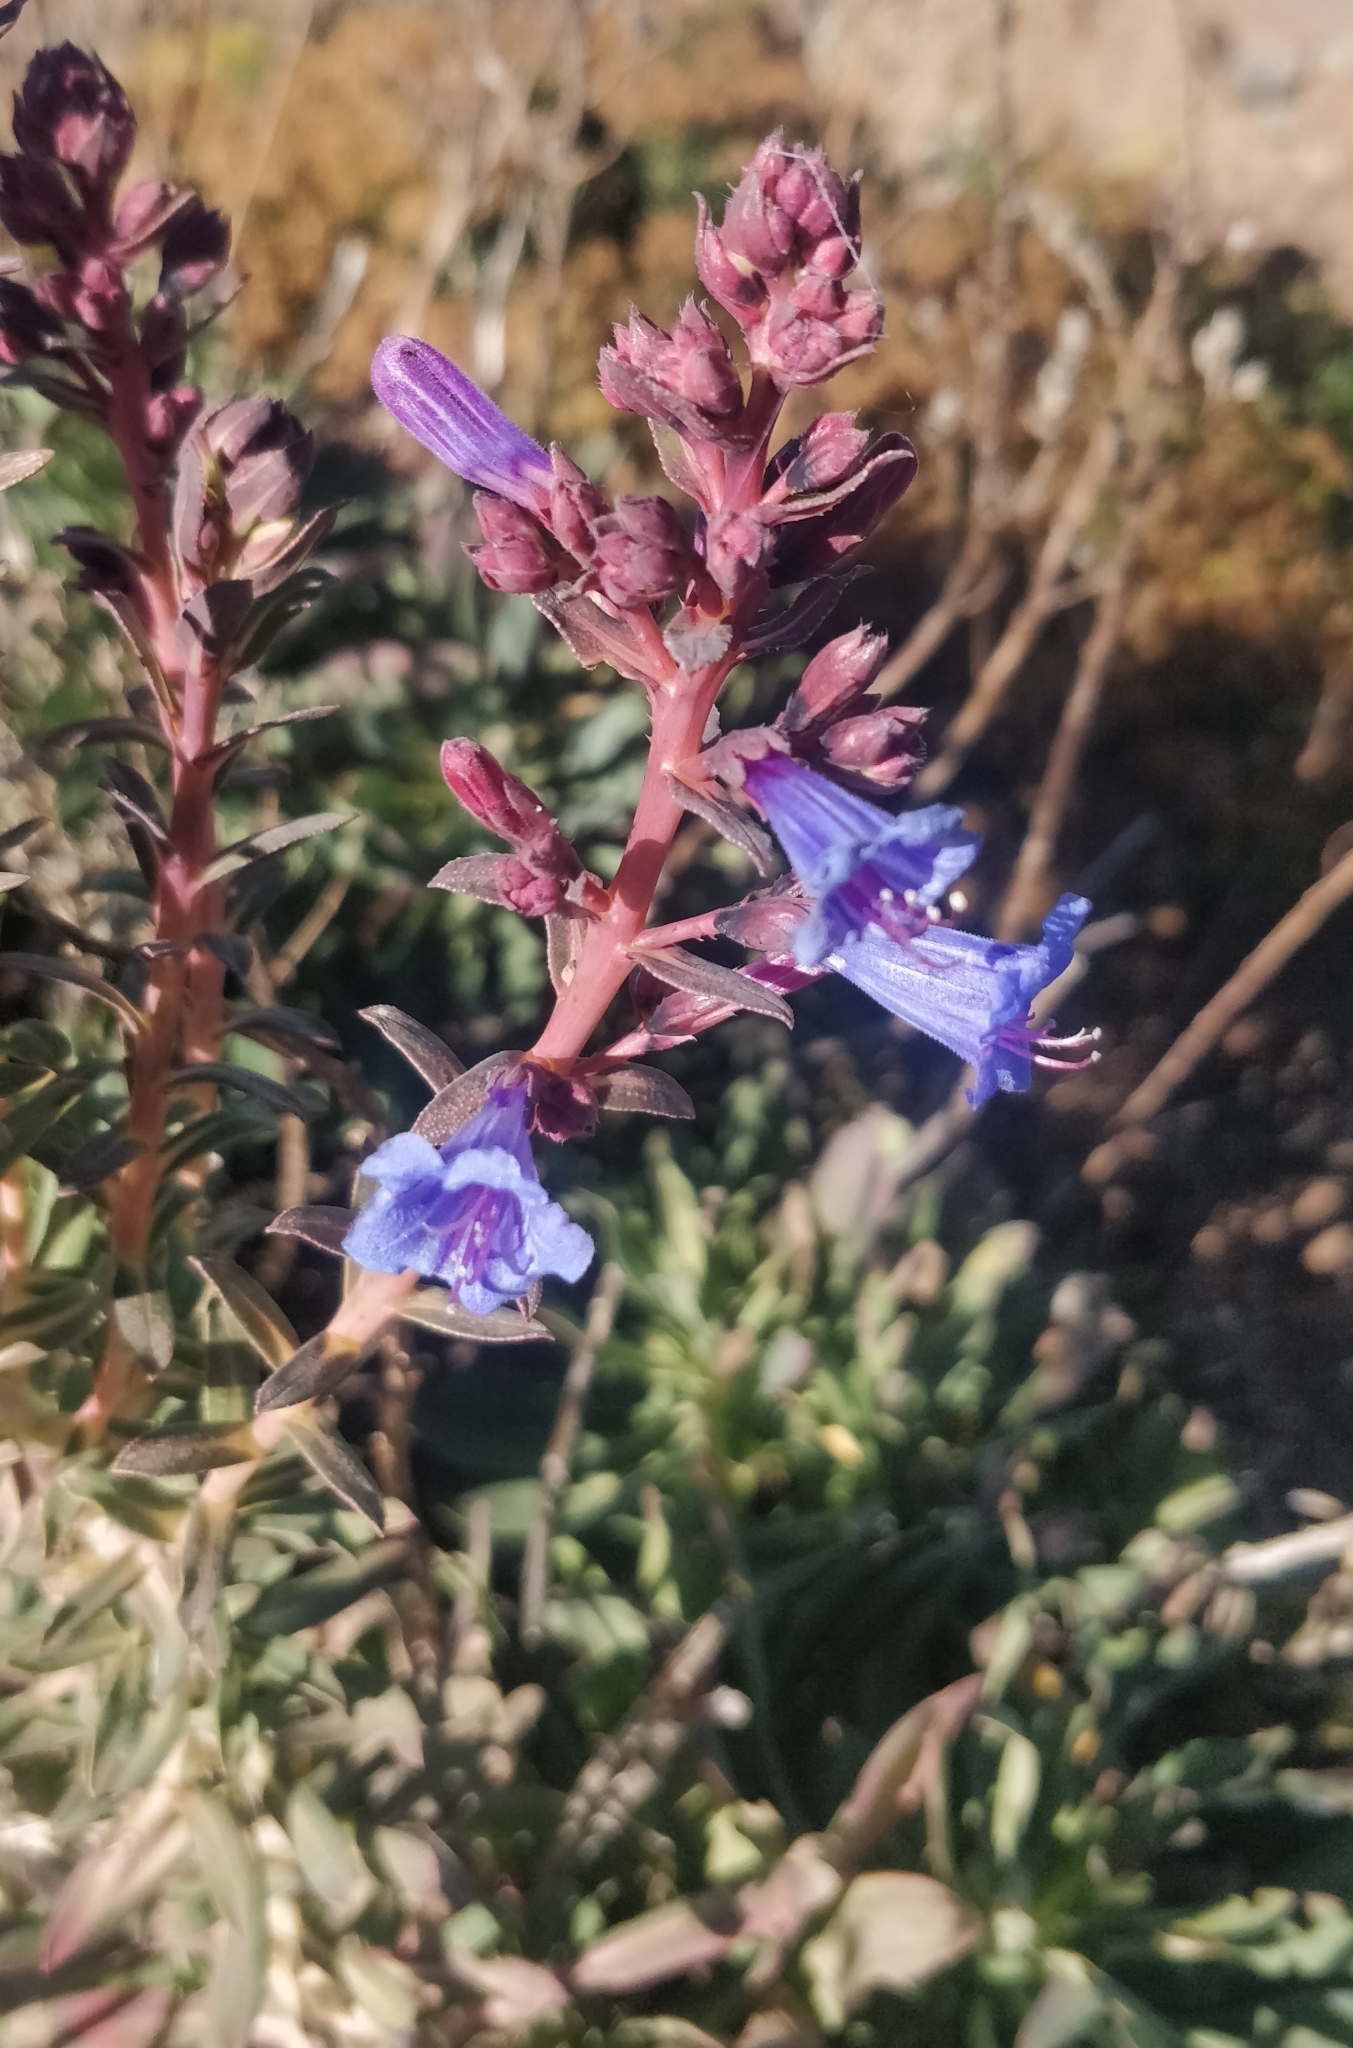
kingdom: Plantae
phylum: Tracheophyta
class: Magnoliopsida
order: Boraginales
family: Boraginaceae
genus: Echium
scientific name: Echium thyrsiflorum
